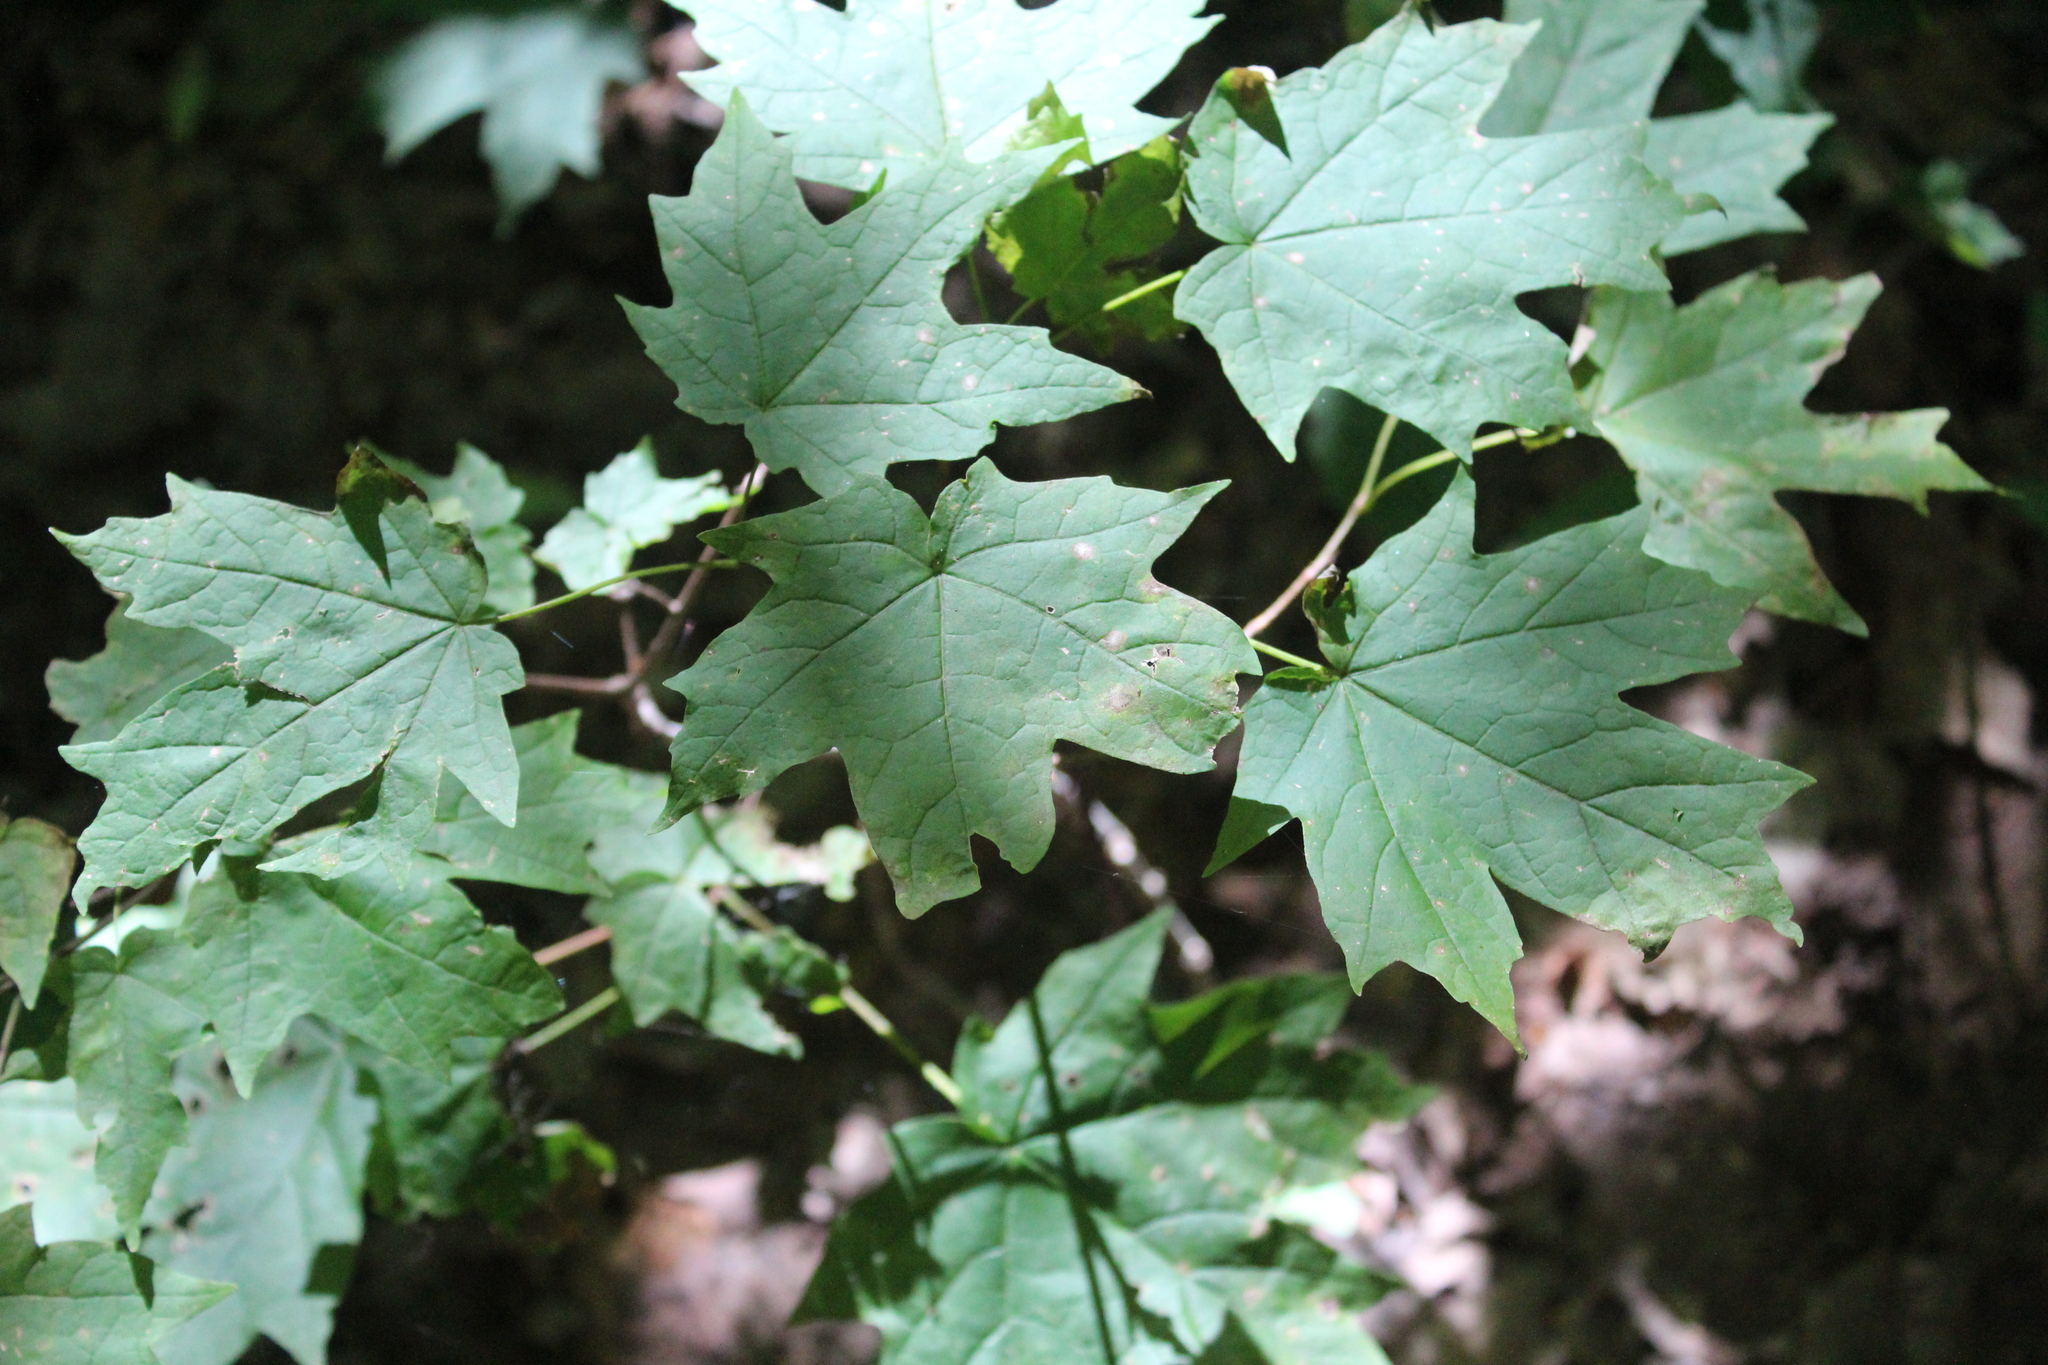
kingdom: Plantae
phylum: Tracheophyta
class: Magnoliopsida
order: Sapindales
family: Sapindaceae
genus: Acer
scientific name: Acer saccharum
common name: Sugar maple
